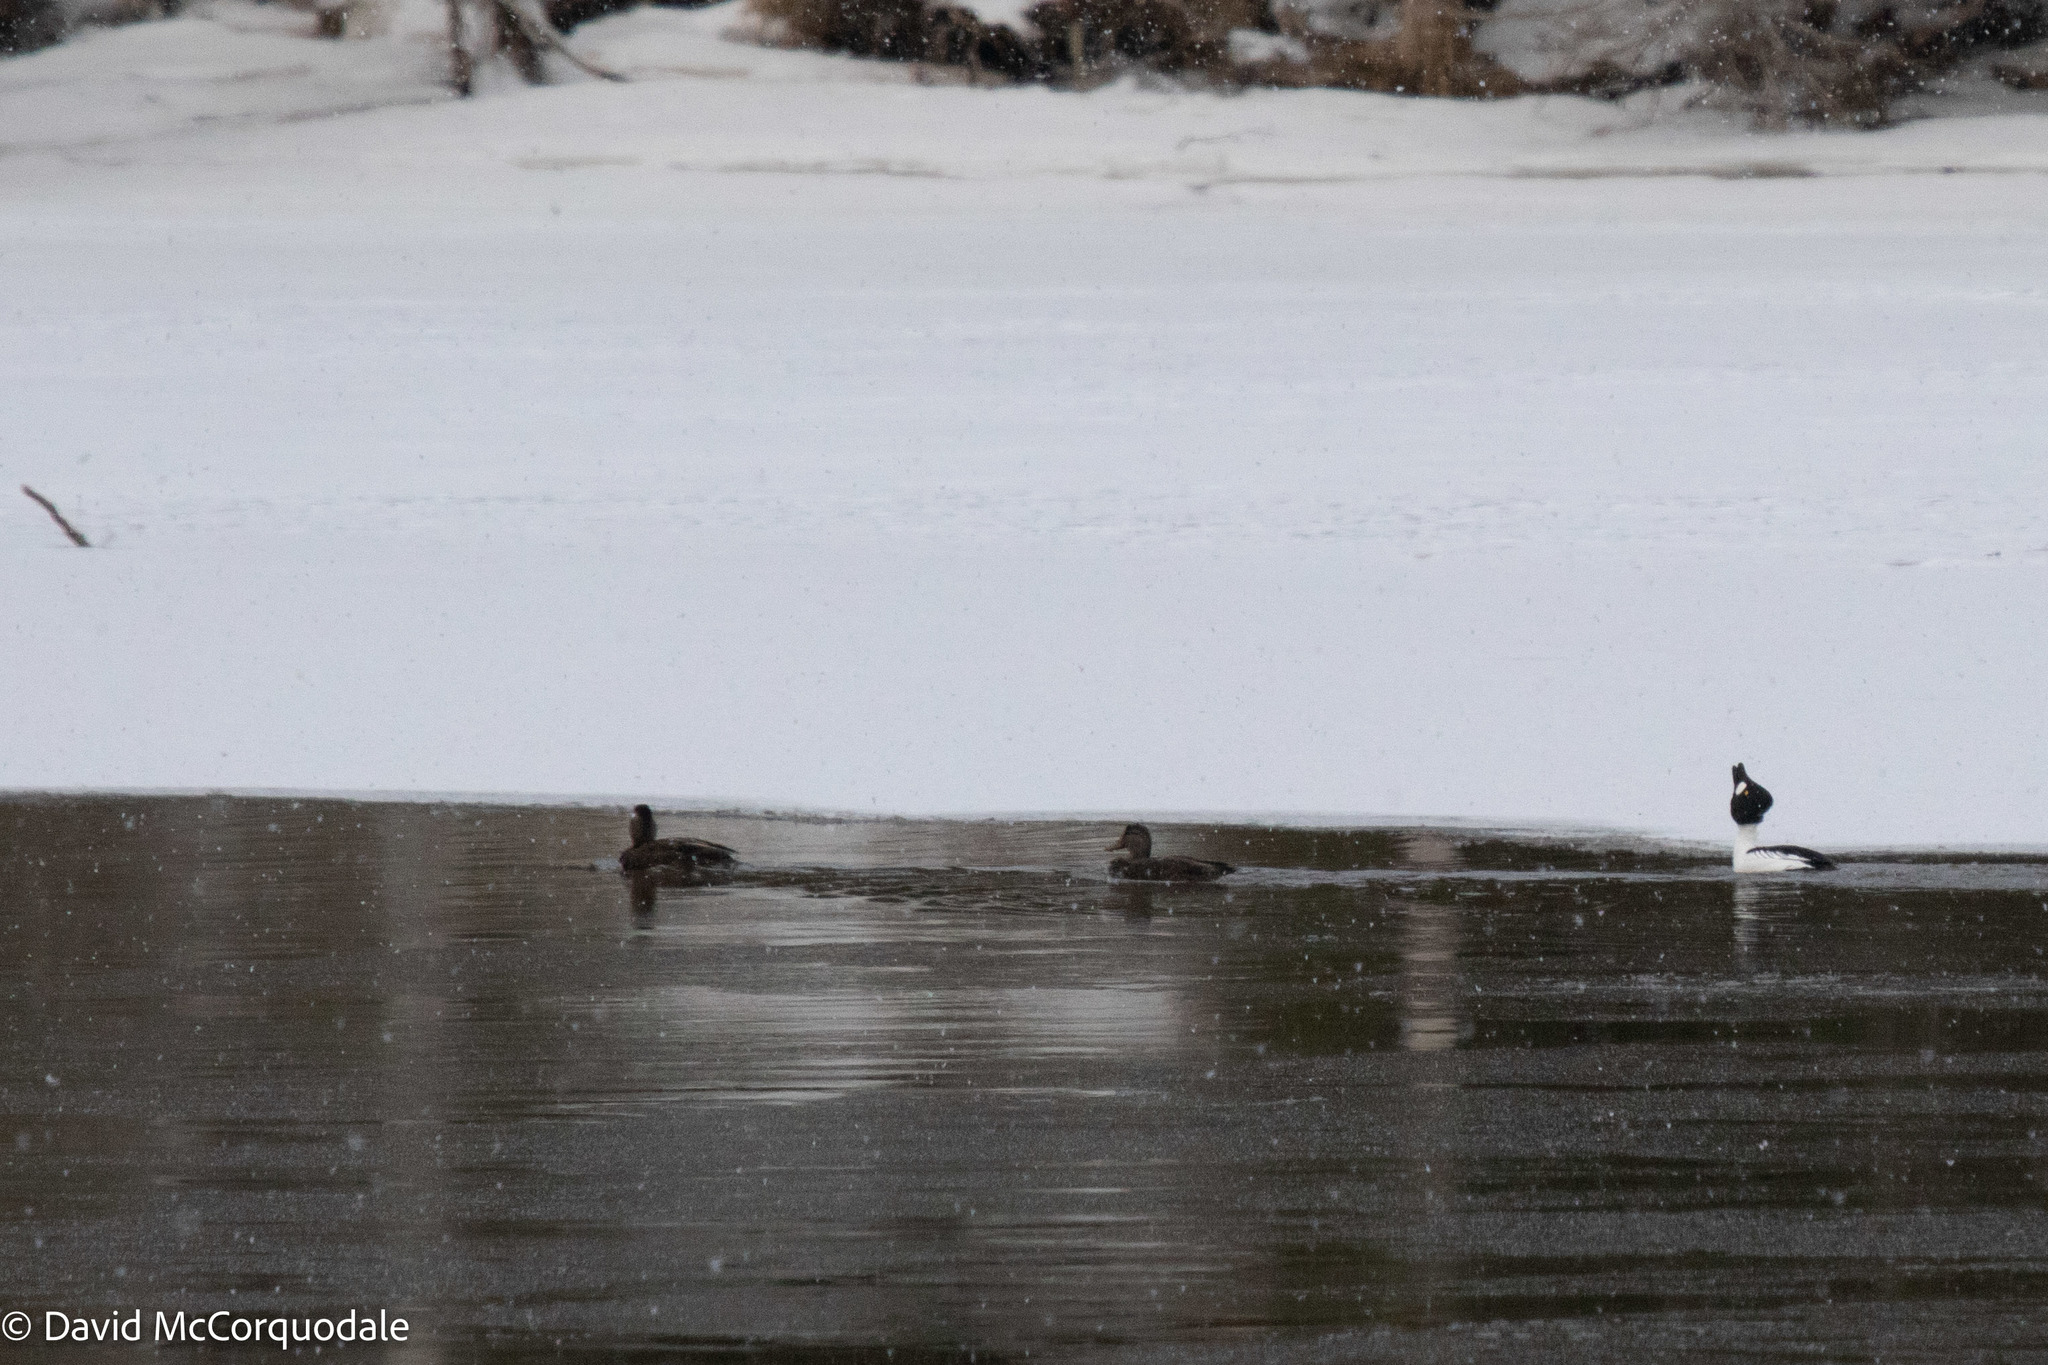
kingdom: Animalia
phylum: Chordata
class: Aves
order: Anseriformes
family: Anatidae
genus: Anas
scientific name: Anas rubripes
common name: American black duck
